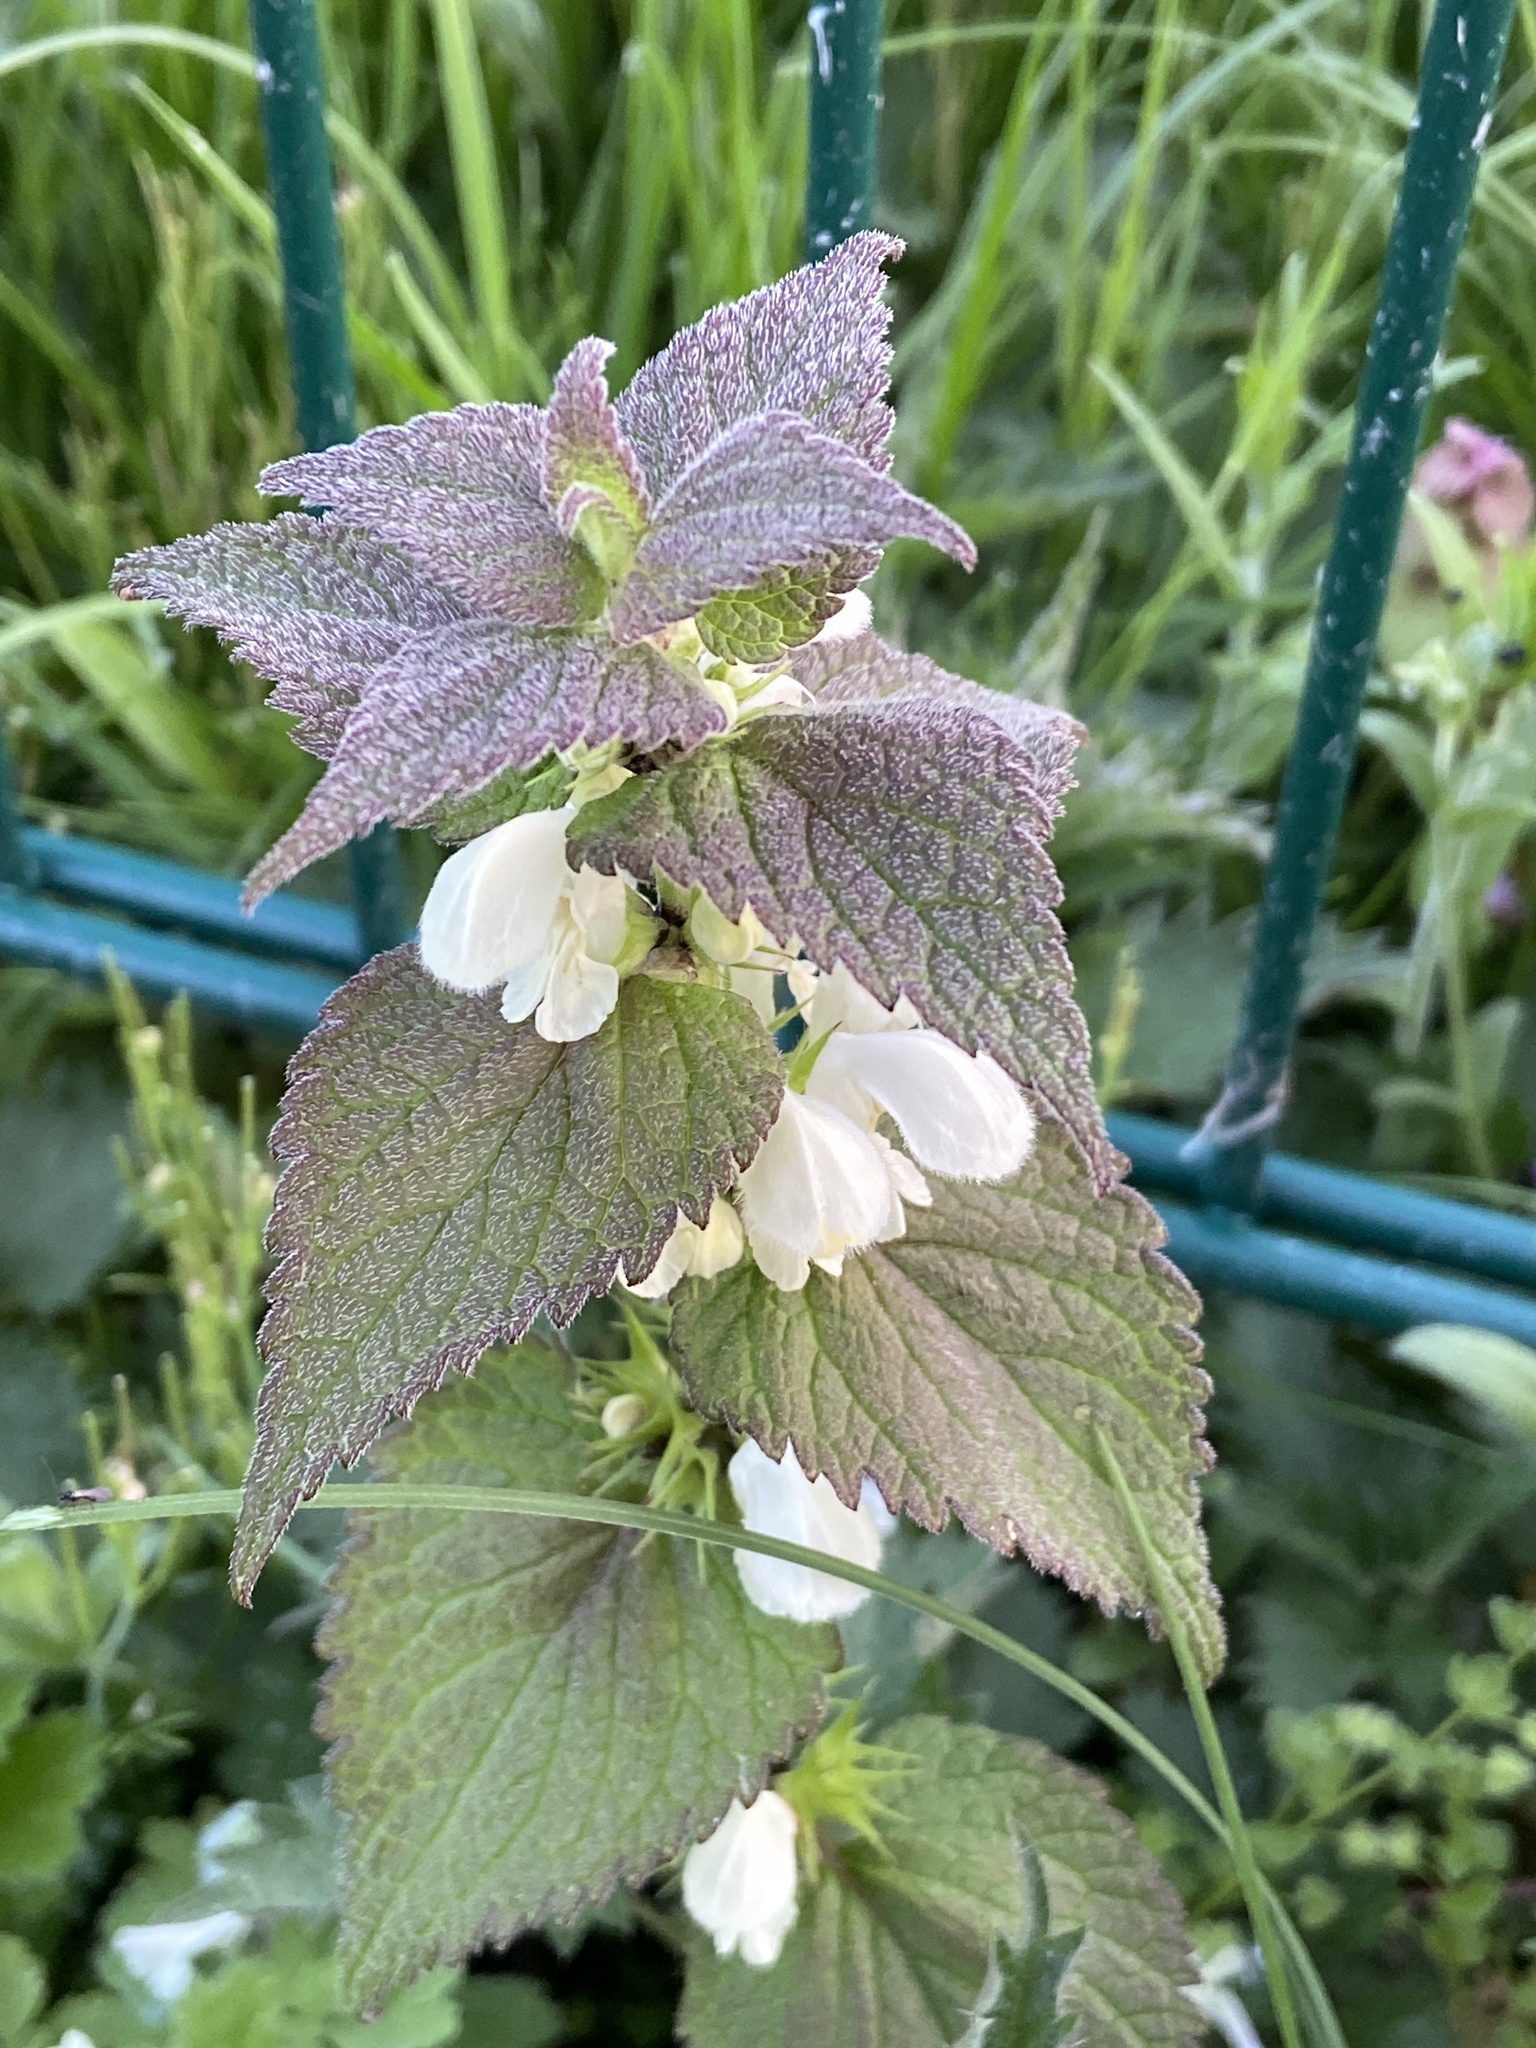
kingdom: Plantae
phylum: Tracheophyta
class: Magnoliopsida
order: Lamiales
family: Lamiaceae
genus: Lamium
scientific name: Lamium album
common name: White dead-nettle
